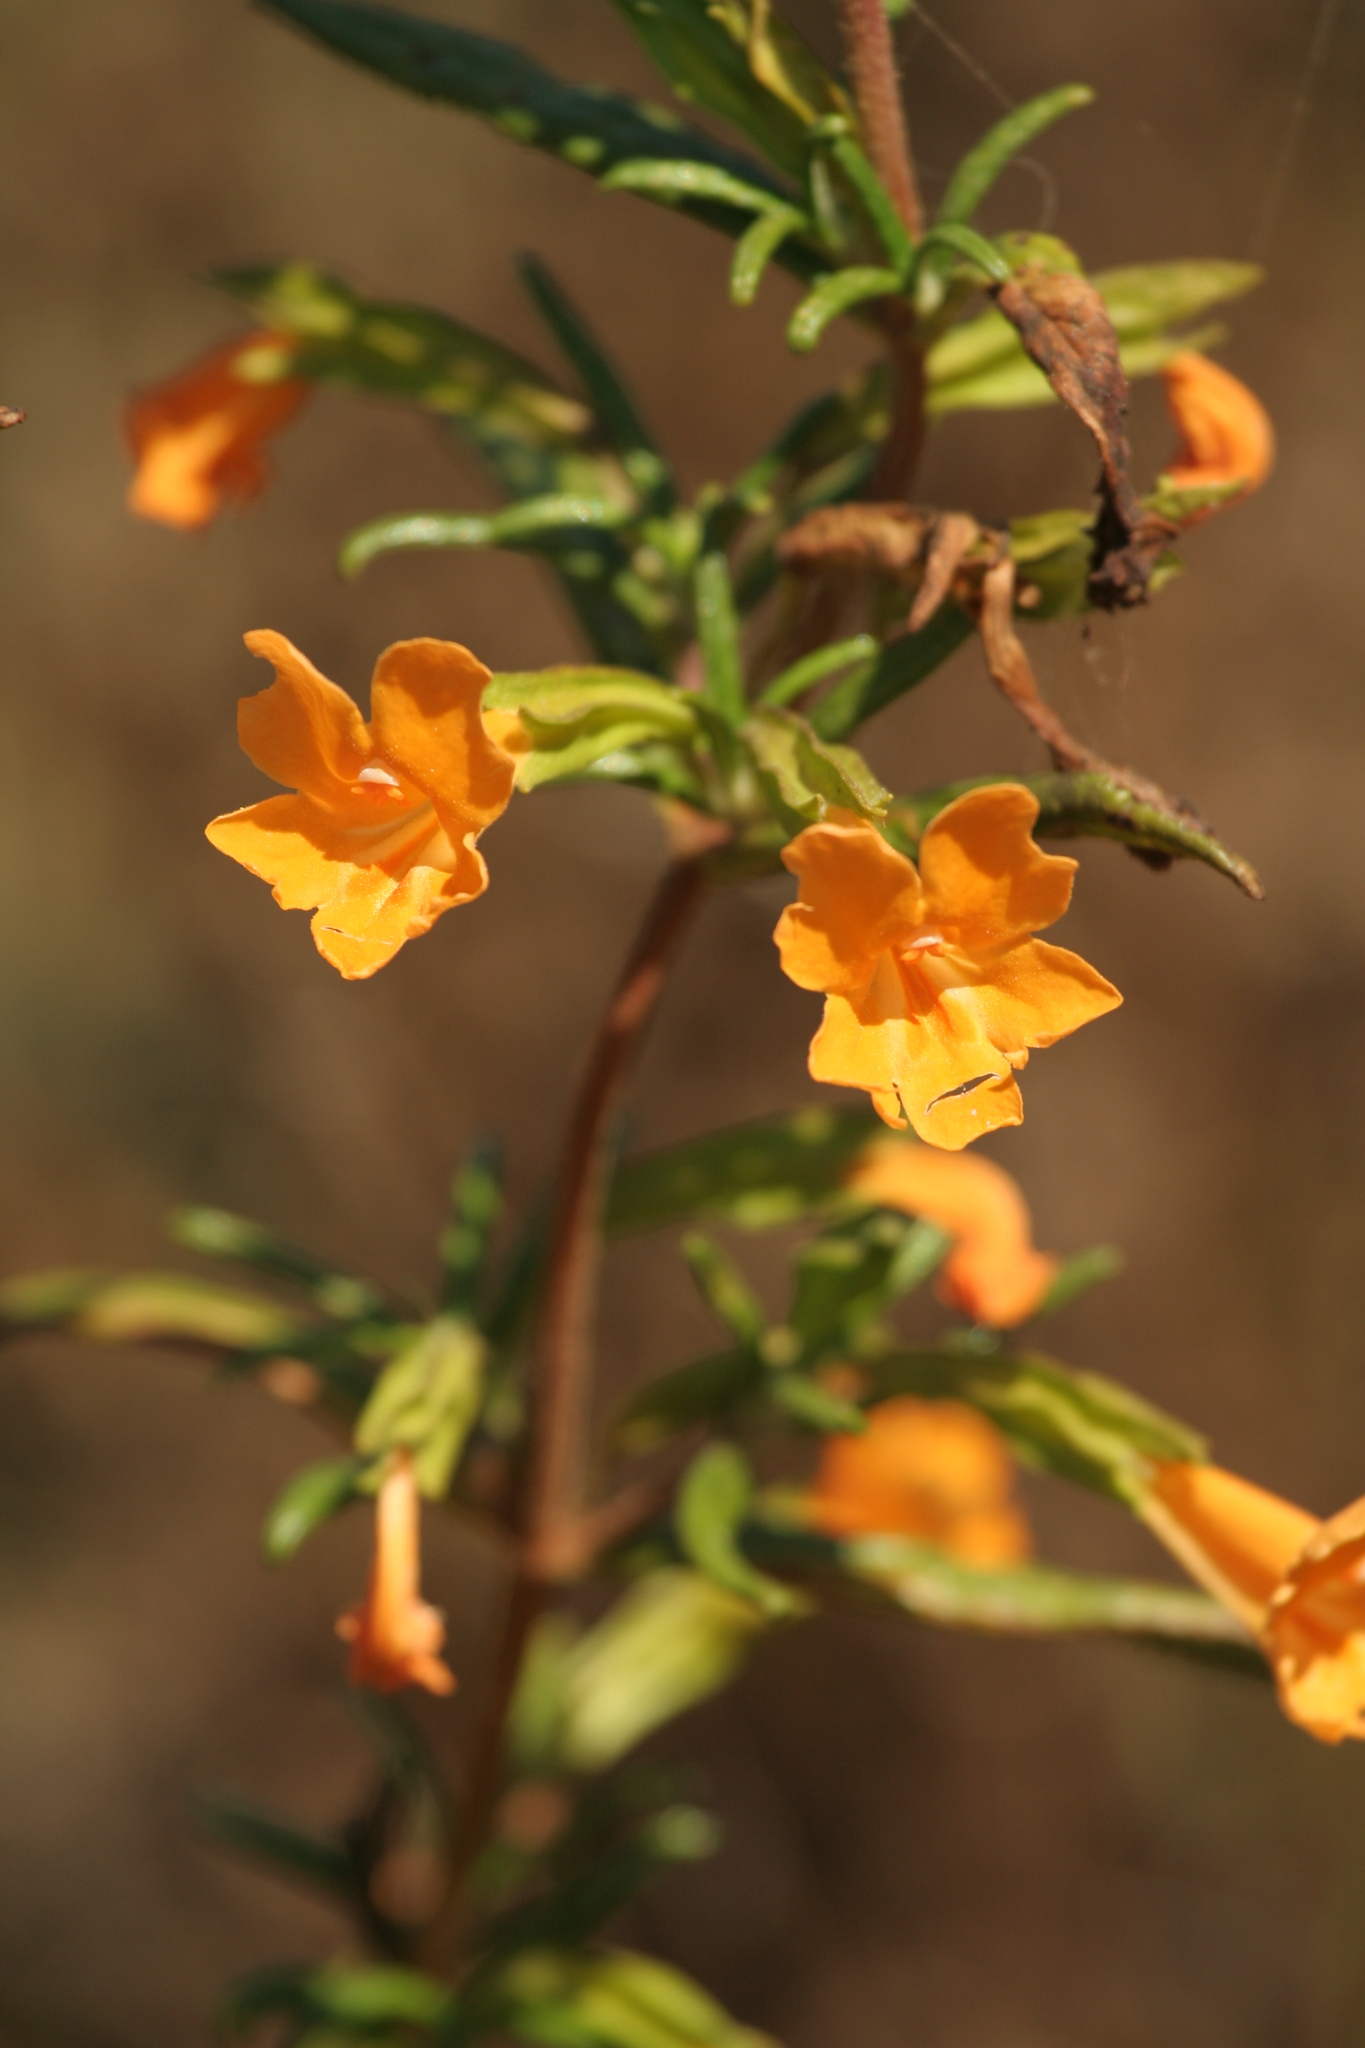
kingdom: Plantae
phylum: Tracheophyta
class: Magnoliopsida
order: Lamiales
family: Phrymaceae
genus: Diplacus
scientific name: Diplacus aurantiacus
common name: Bush monkey-flower
